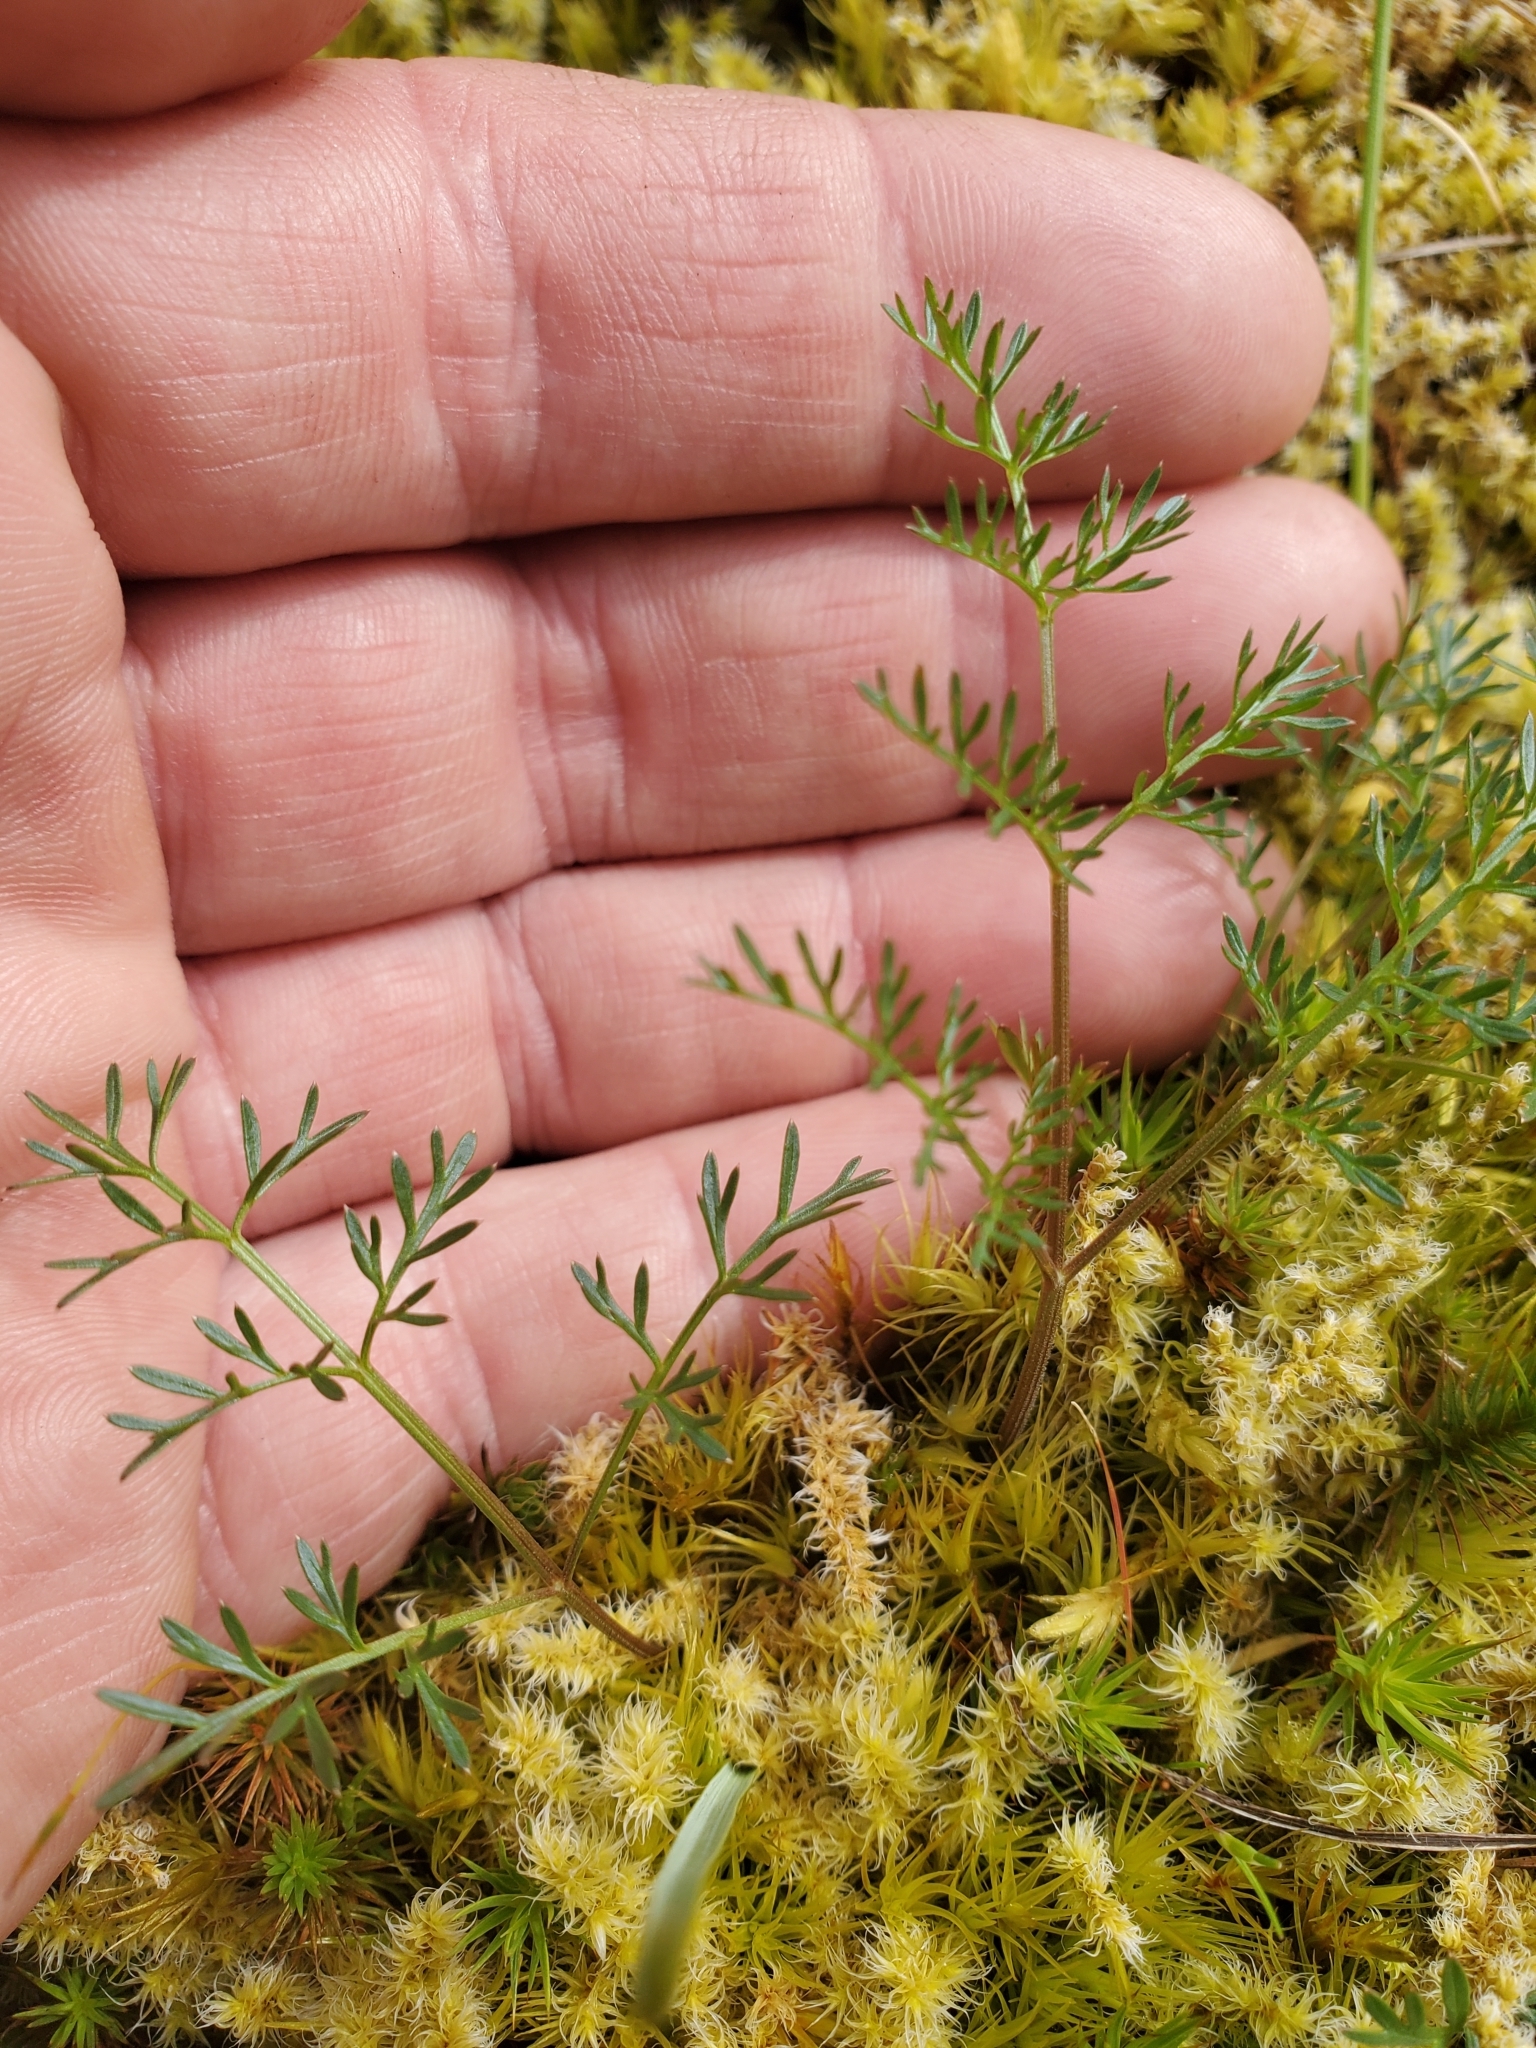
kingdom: Plantae
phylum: Tracheophyta
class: Magnoliopsida
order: Apiales
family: Apiaceae
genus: Lomatium
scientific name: Lomatium utriculatum
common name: Fine-leaf desert-parsley
